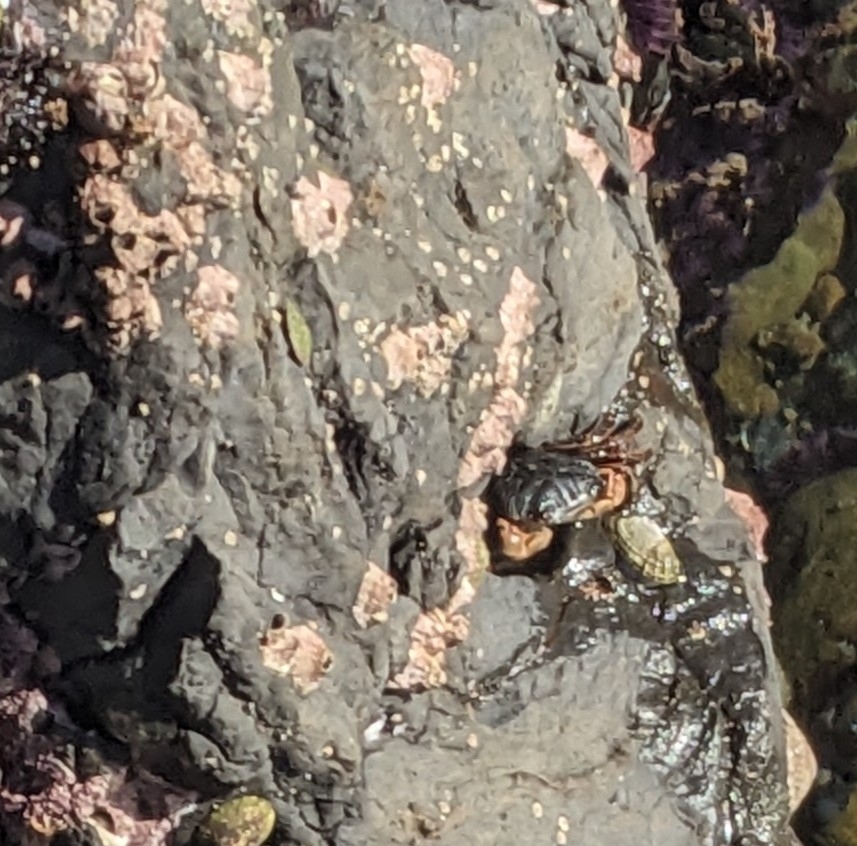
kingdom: Animalia
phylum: Arthropoda
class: Malacostraca
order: Decapoda
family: Grapsidae
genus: Pachygrapsus
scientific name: Pachygrapsus crassipes
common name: Striped shore crab
